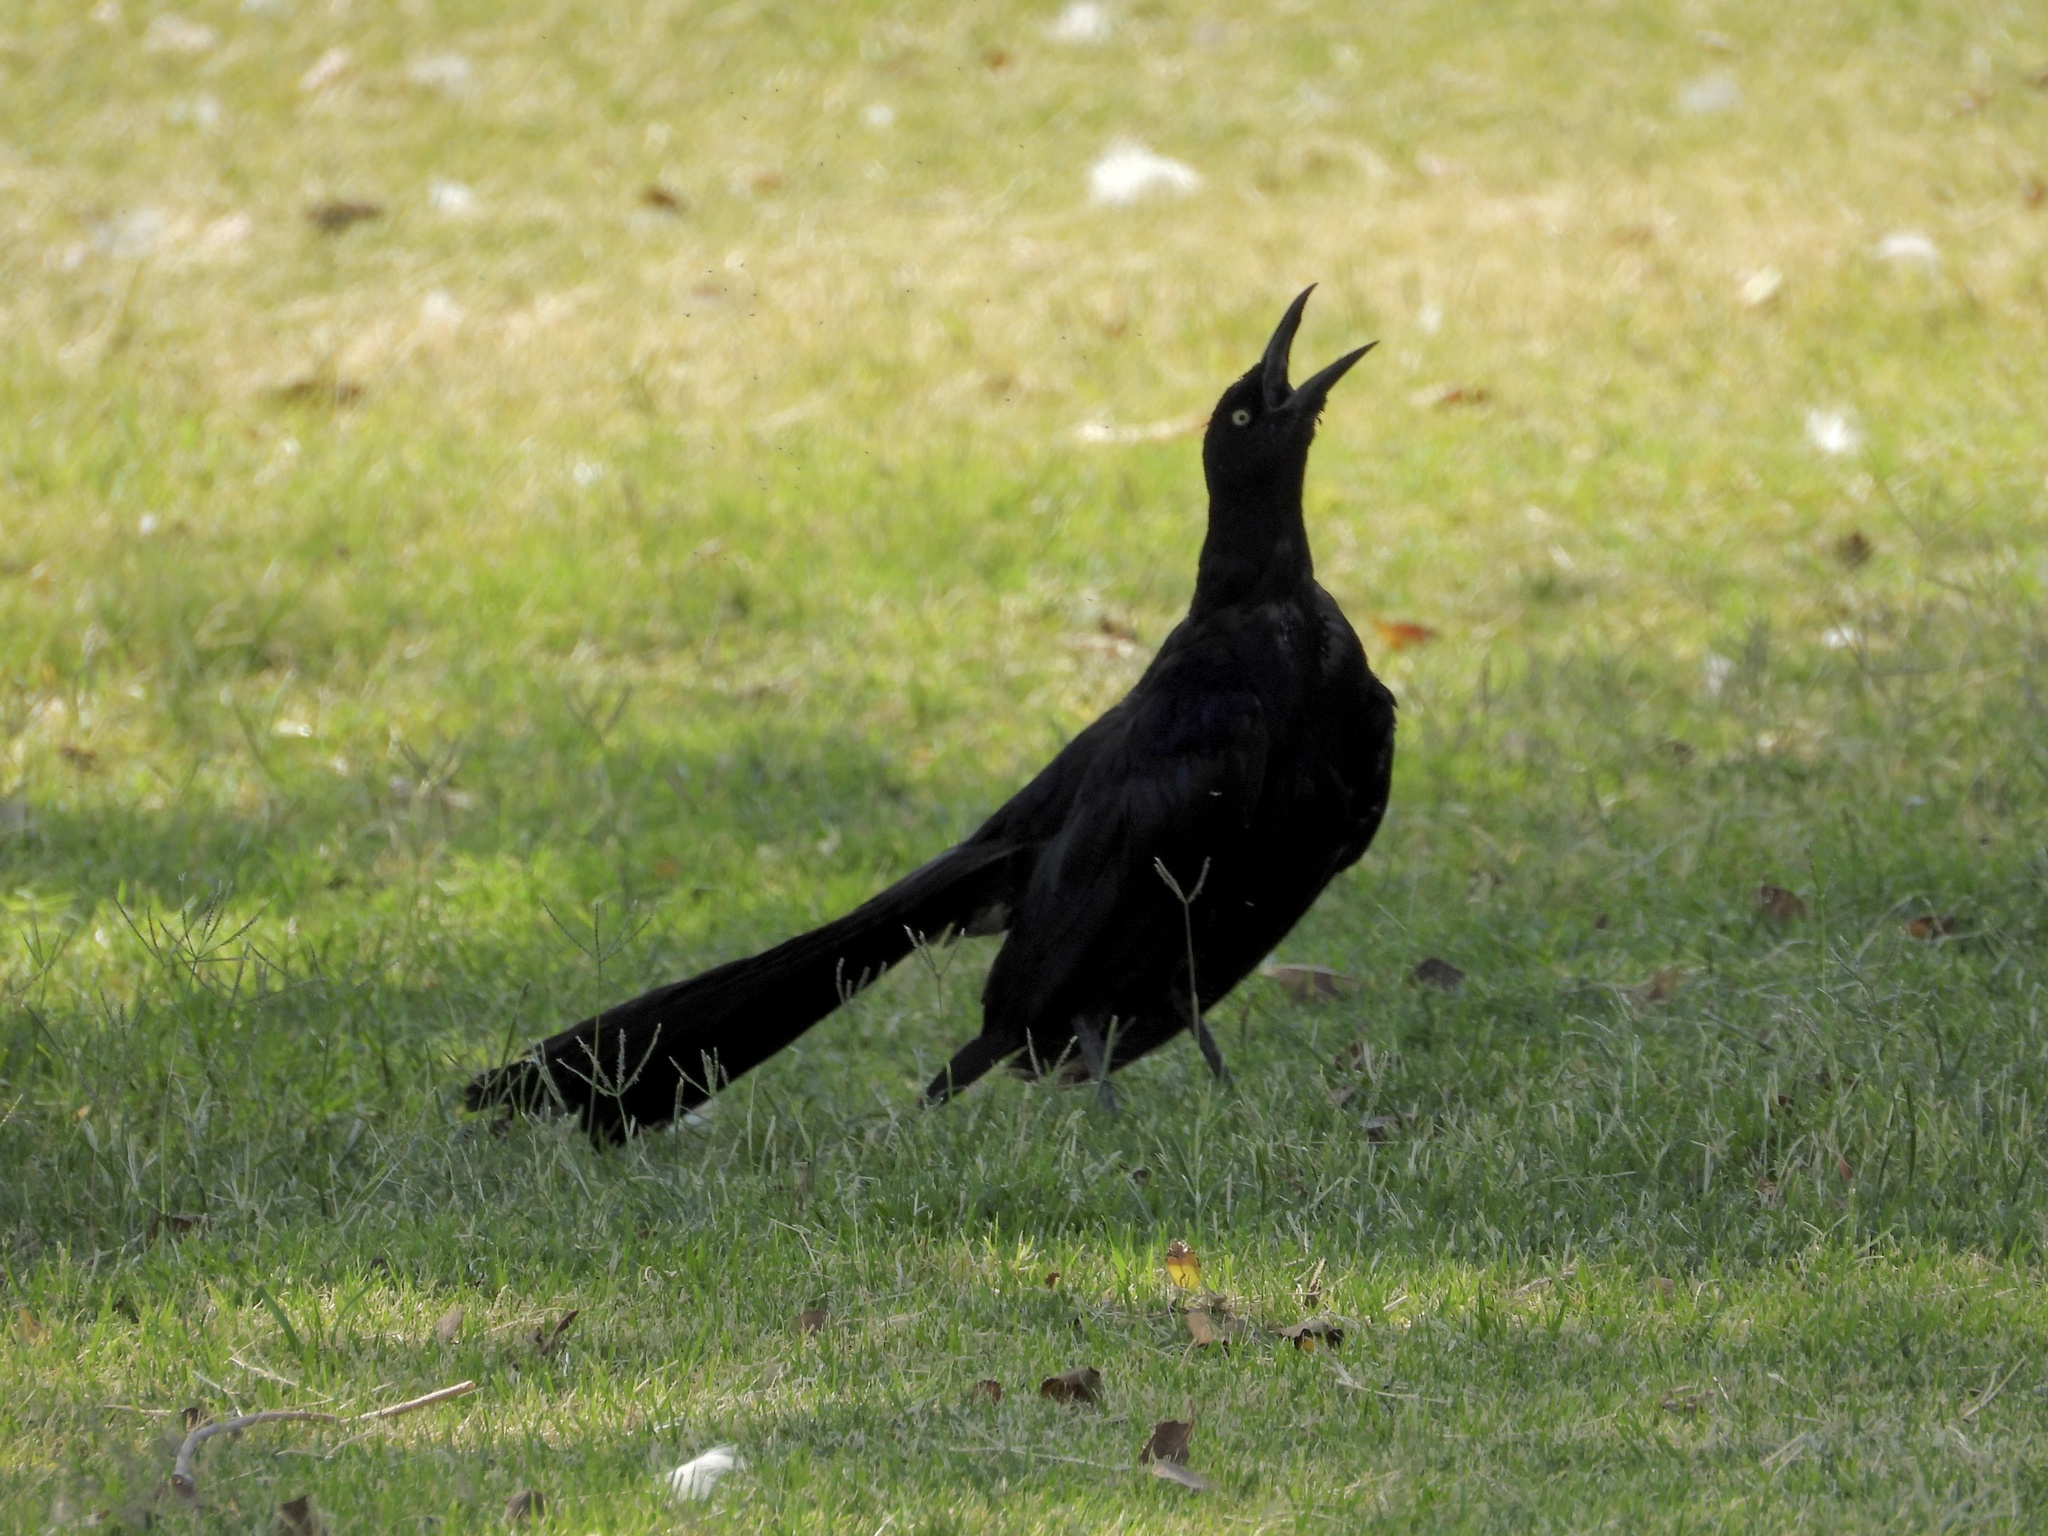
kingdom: Animalia
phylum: Chordata
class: Aves
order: Passeriformes
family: Icteridae
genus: Quiscalus
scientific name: Quiscalus mexicanus
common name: Great-tailed grackle
